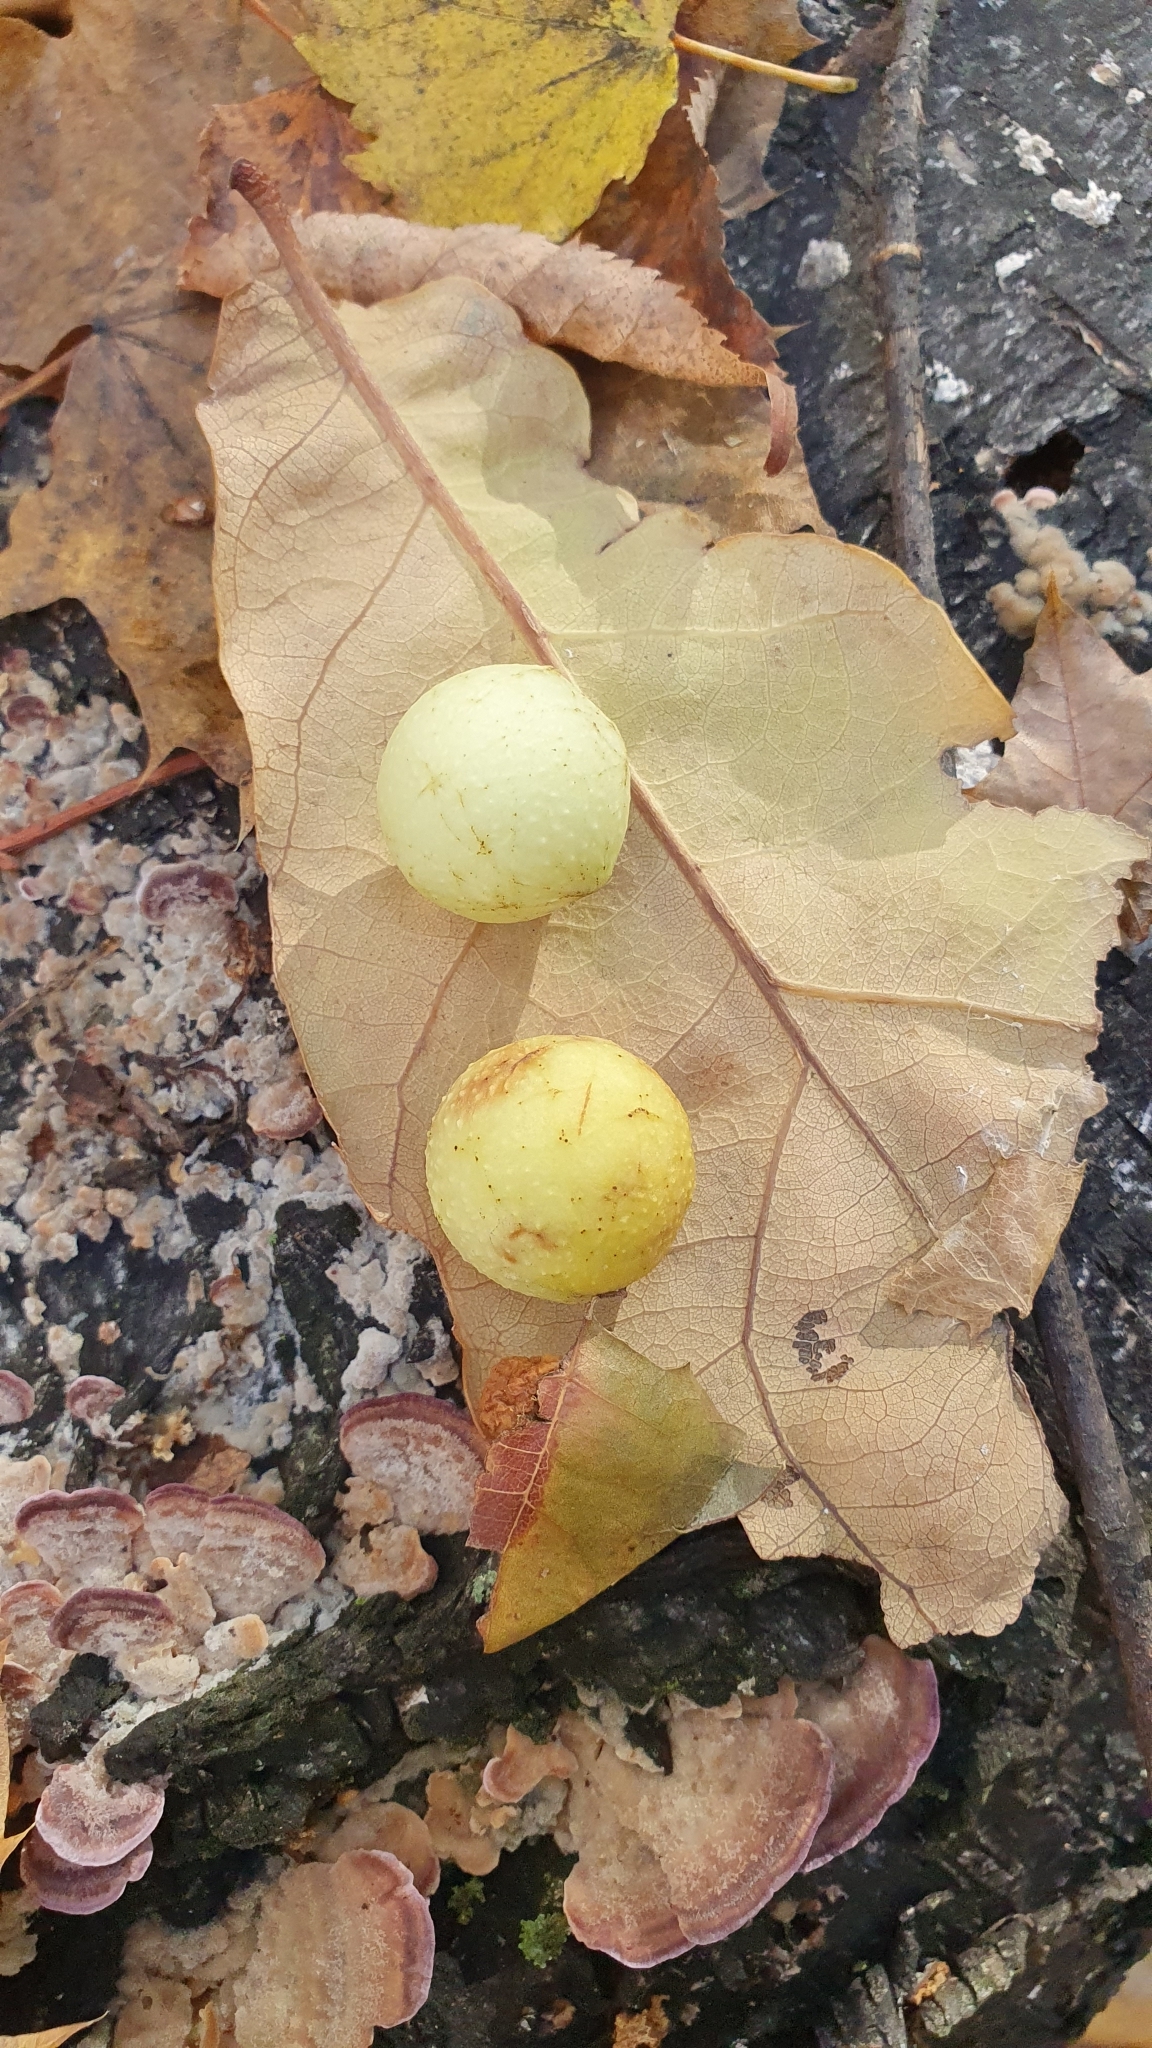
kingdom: Animalia
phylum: Arthropoda
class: Insecta
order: Hymenoptera
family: Cynipidae
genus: Cynips
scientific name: Cynips quercusfolii
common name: Cherry gall
